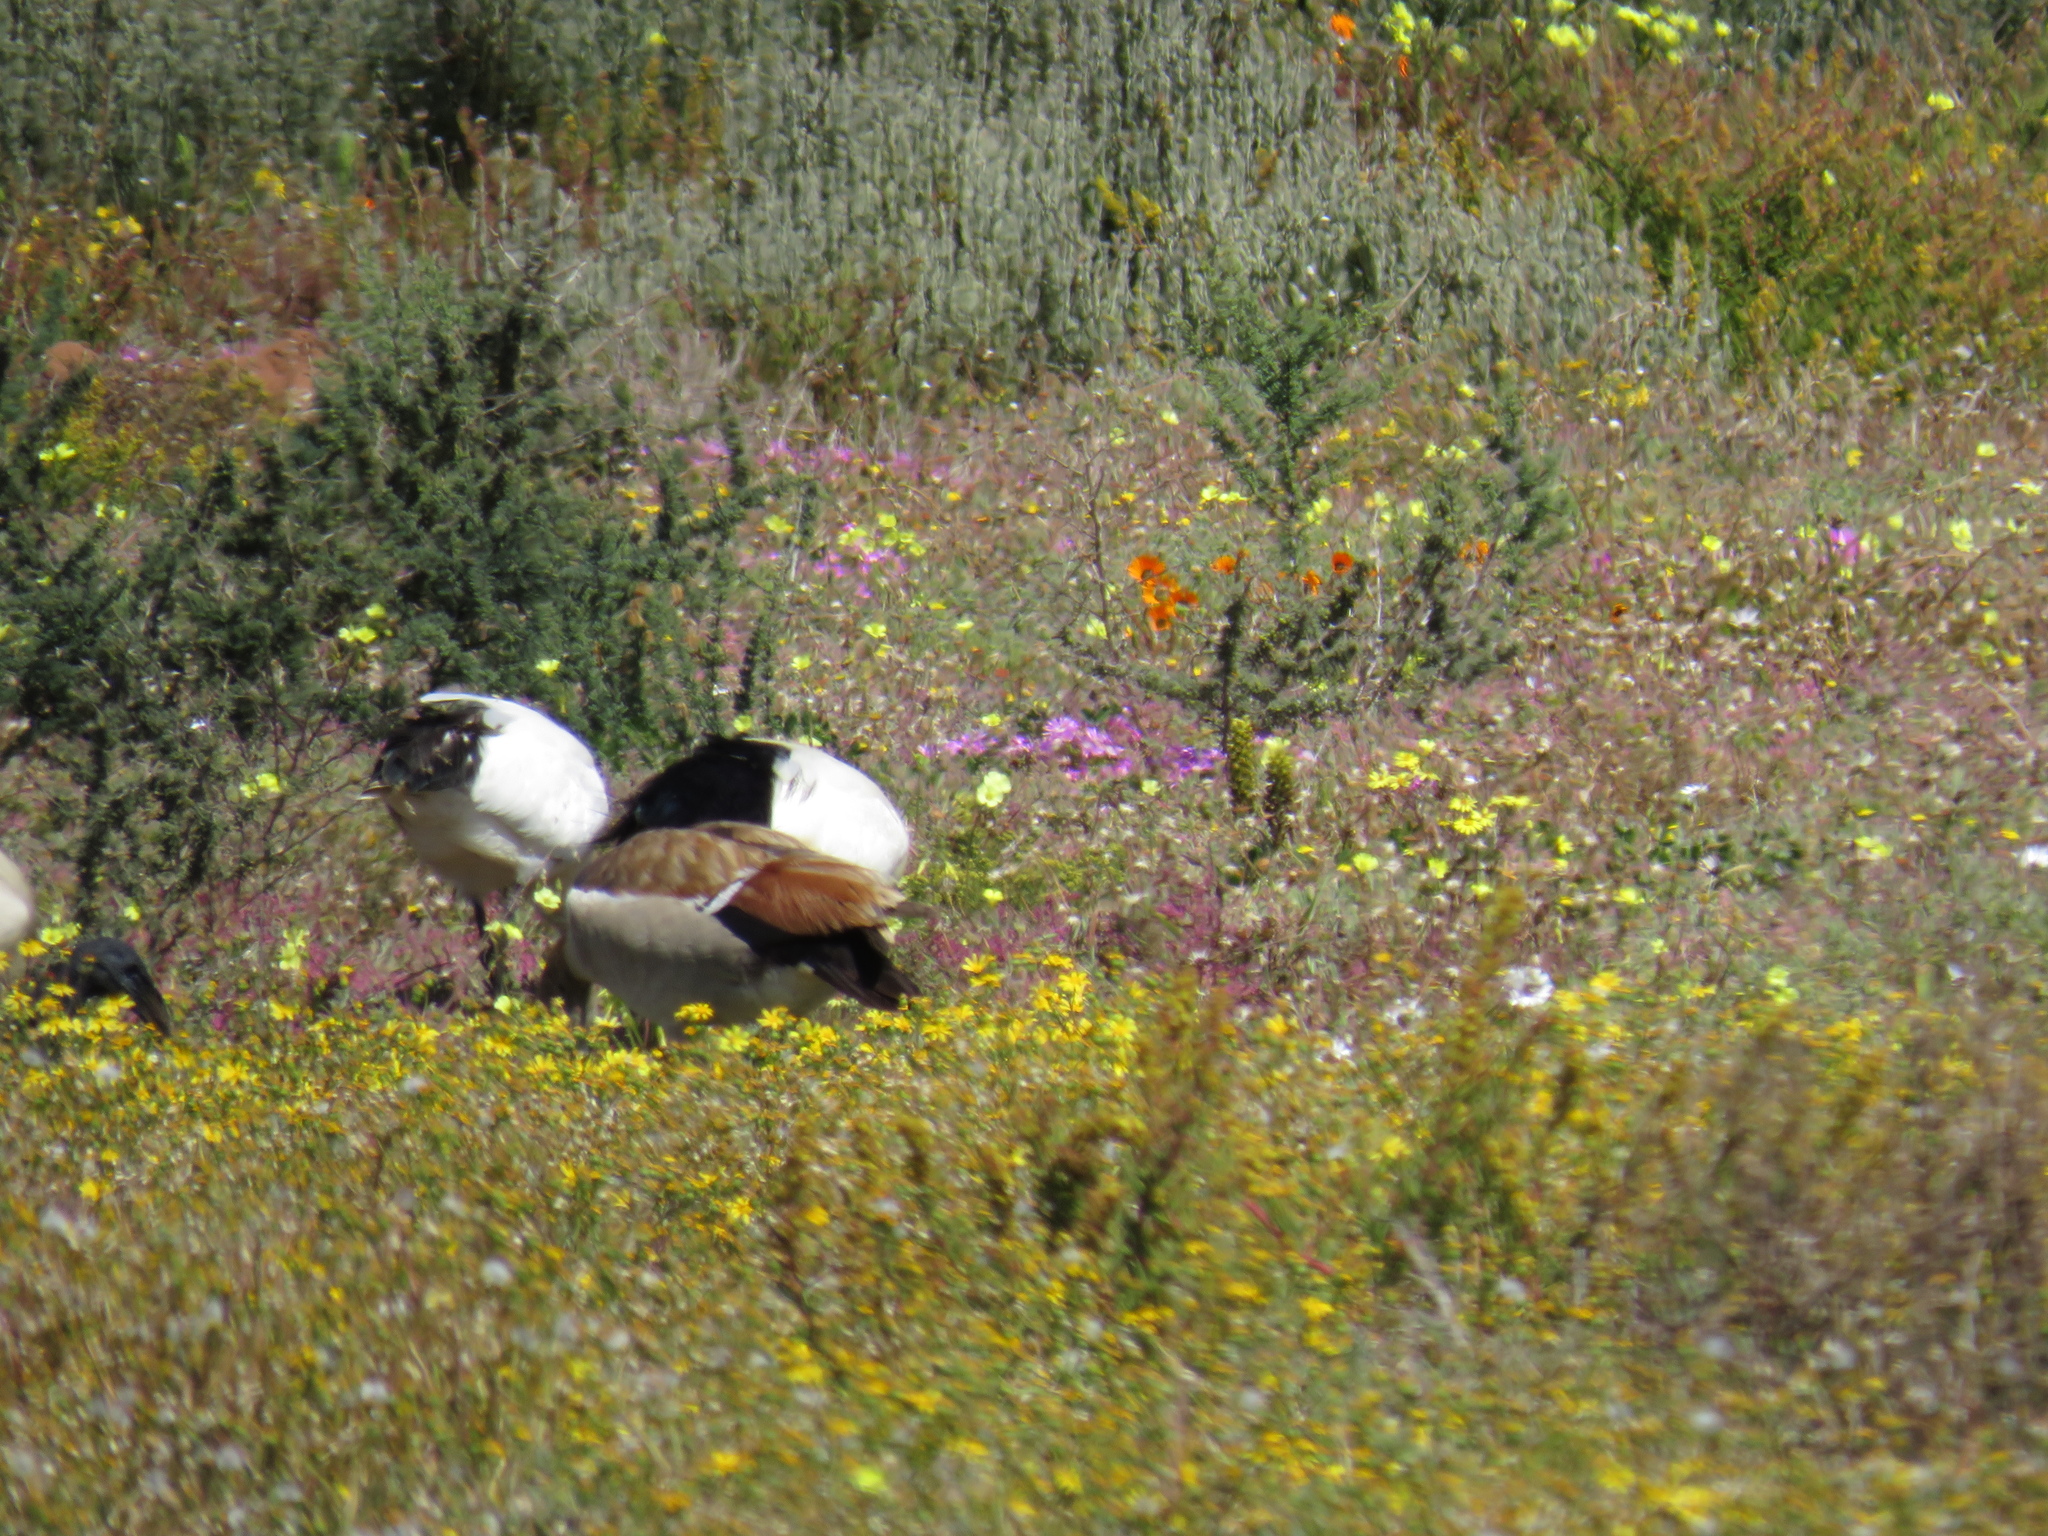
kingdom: Animalia
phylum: Chordata
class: Aves
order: Anseriformes
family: Anatidae
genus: Alopochen
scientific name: Alopochen aegyptiaca
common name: Egyptian goose
